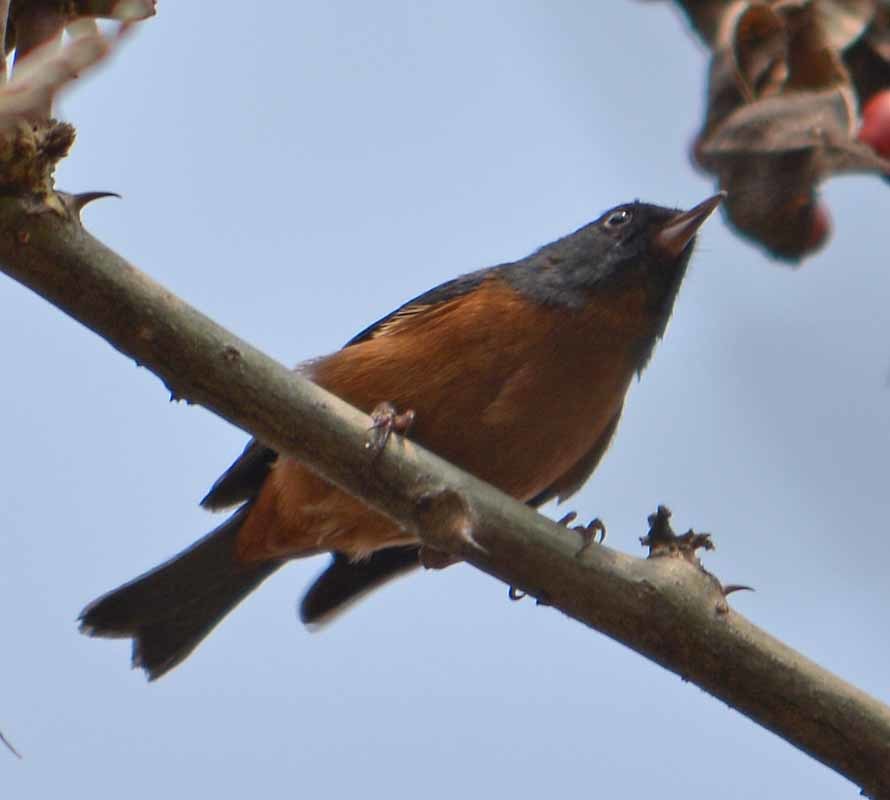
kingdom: Animalia
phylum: Chordata
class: Aves
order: Passeriformes
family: Thraupidae
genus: Diglossa
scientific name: Diglossa baritula
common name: Cinnamon-bellied flowerpiercer
